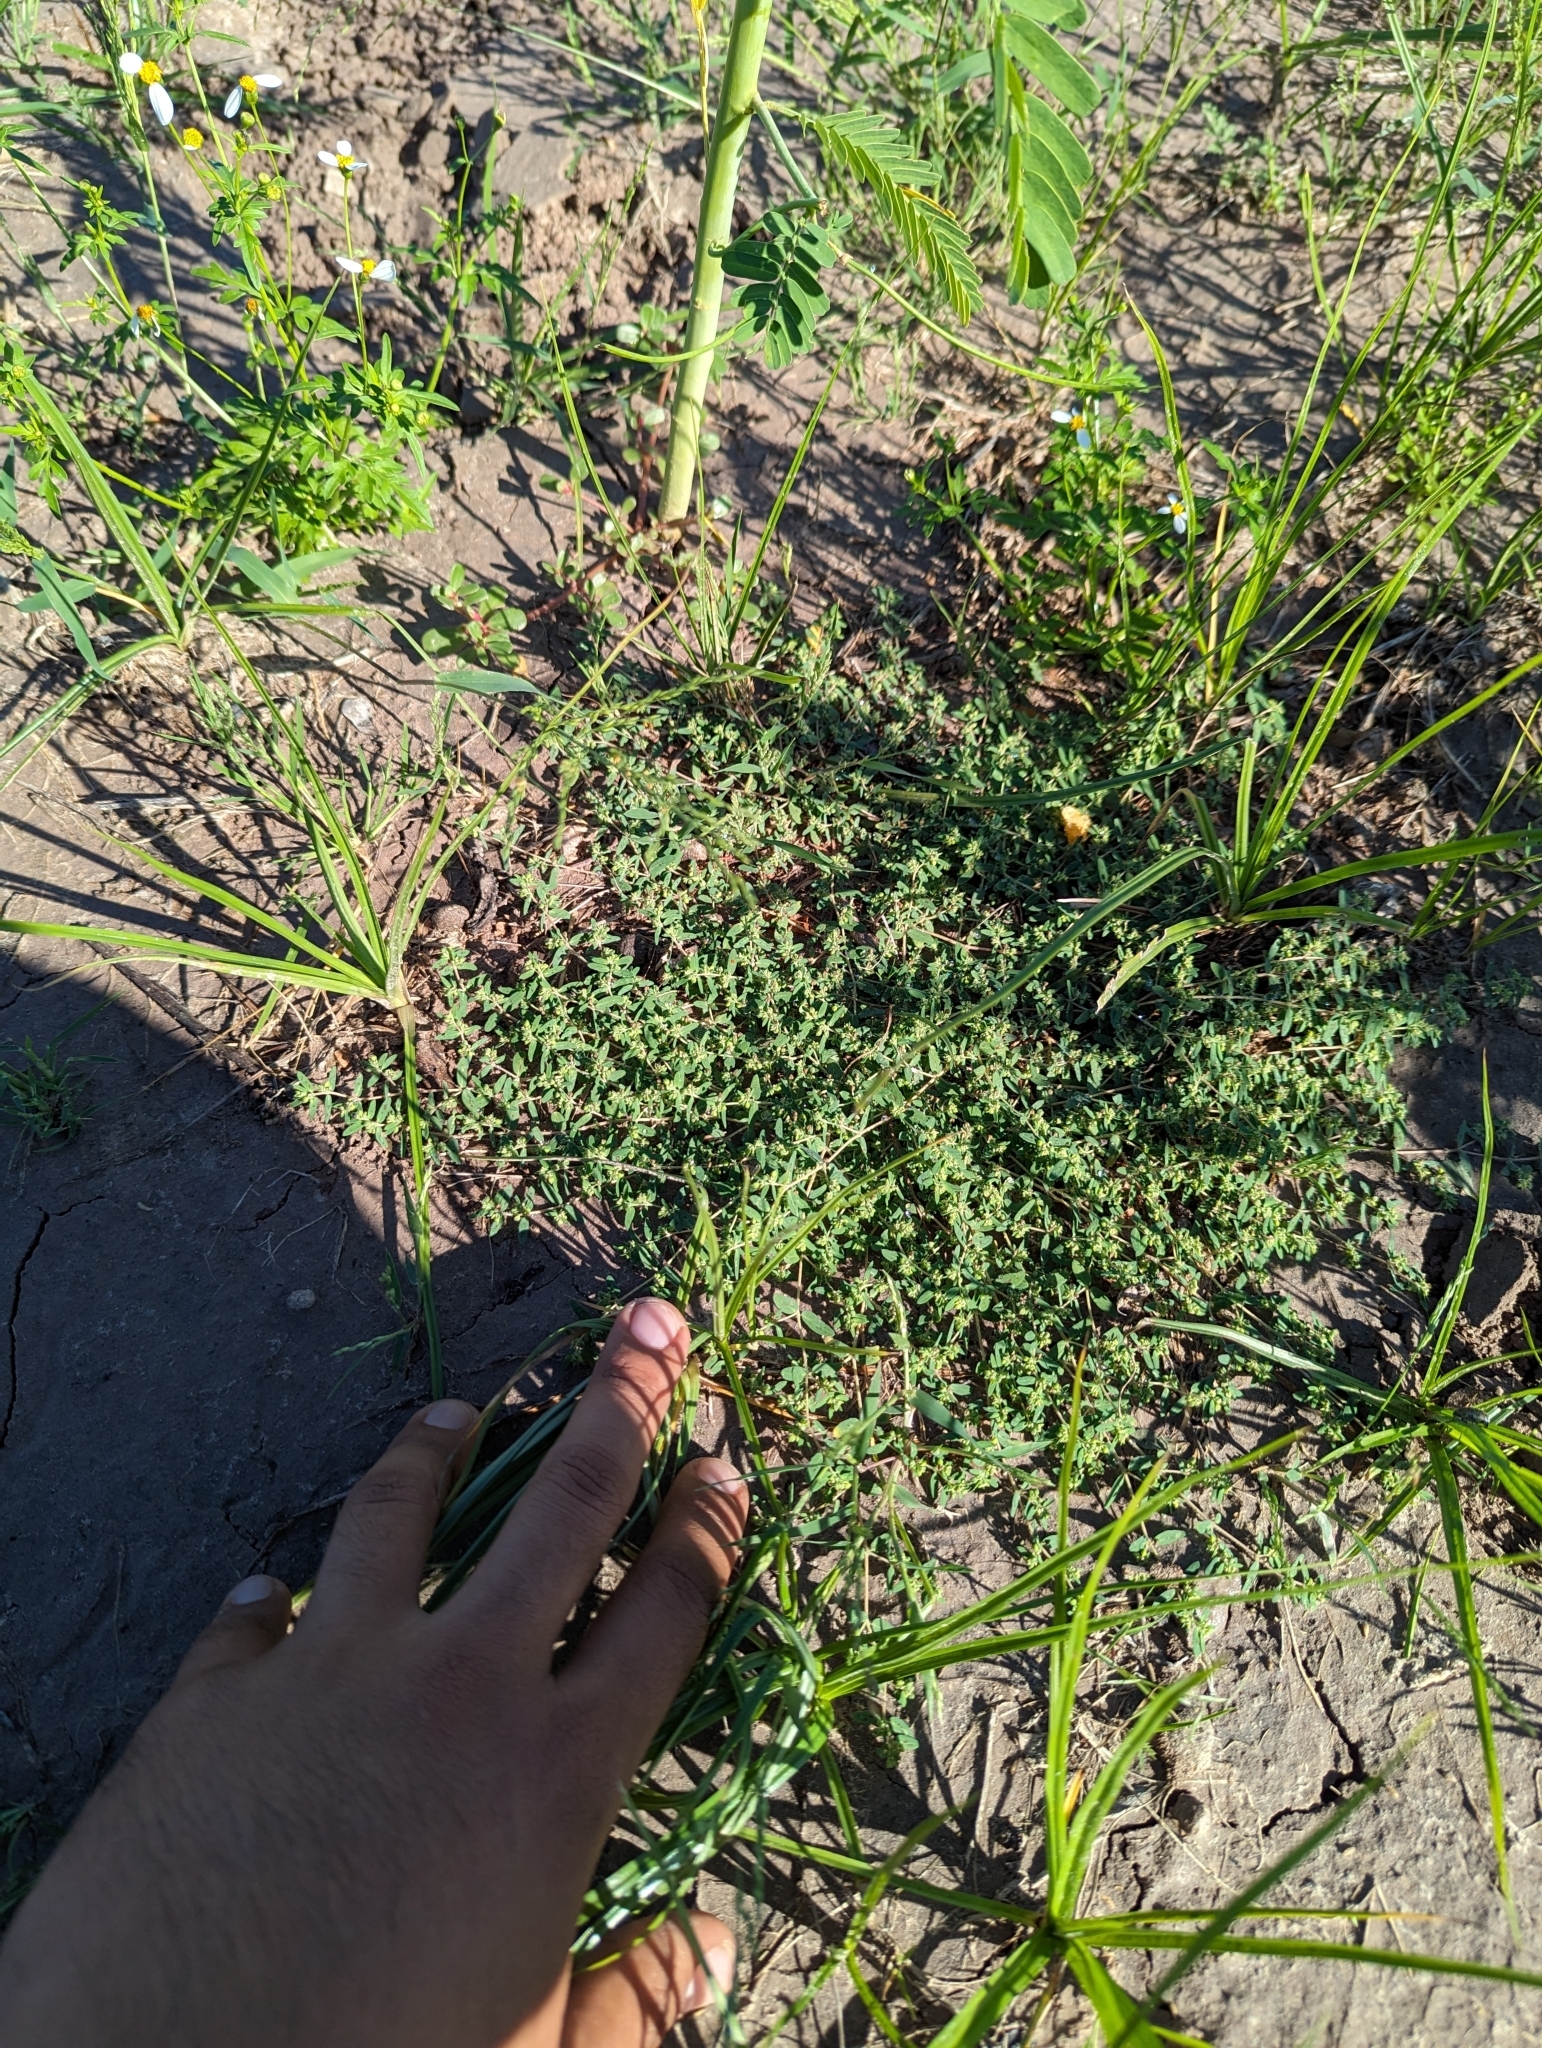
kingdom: Plantae
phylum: Tracheophyta
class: Magnoliopsida
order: Malpighiales
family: Euphorbiaceae
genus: Euphorbia
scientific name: Euphorbia abramsiana
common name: Abram's spurge
